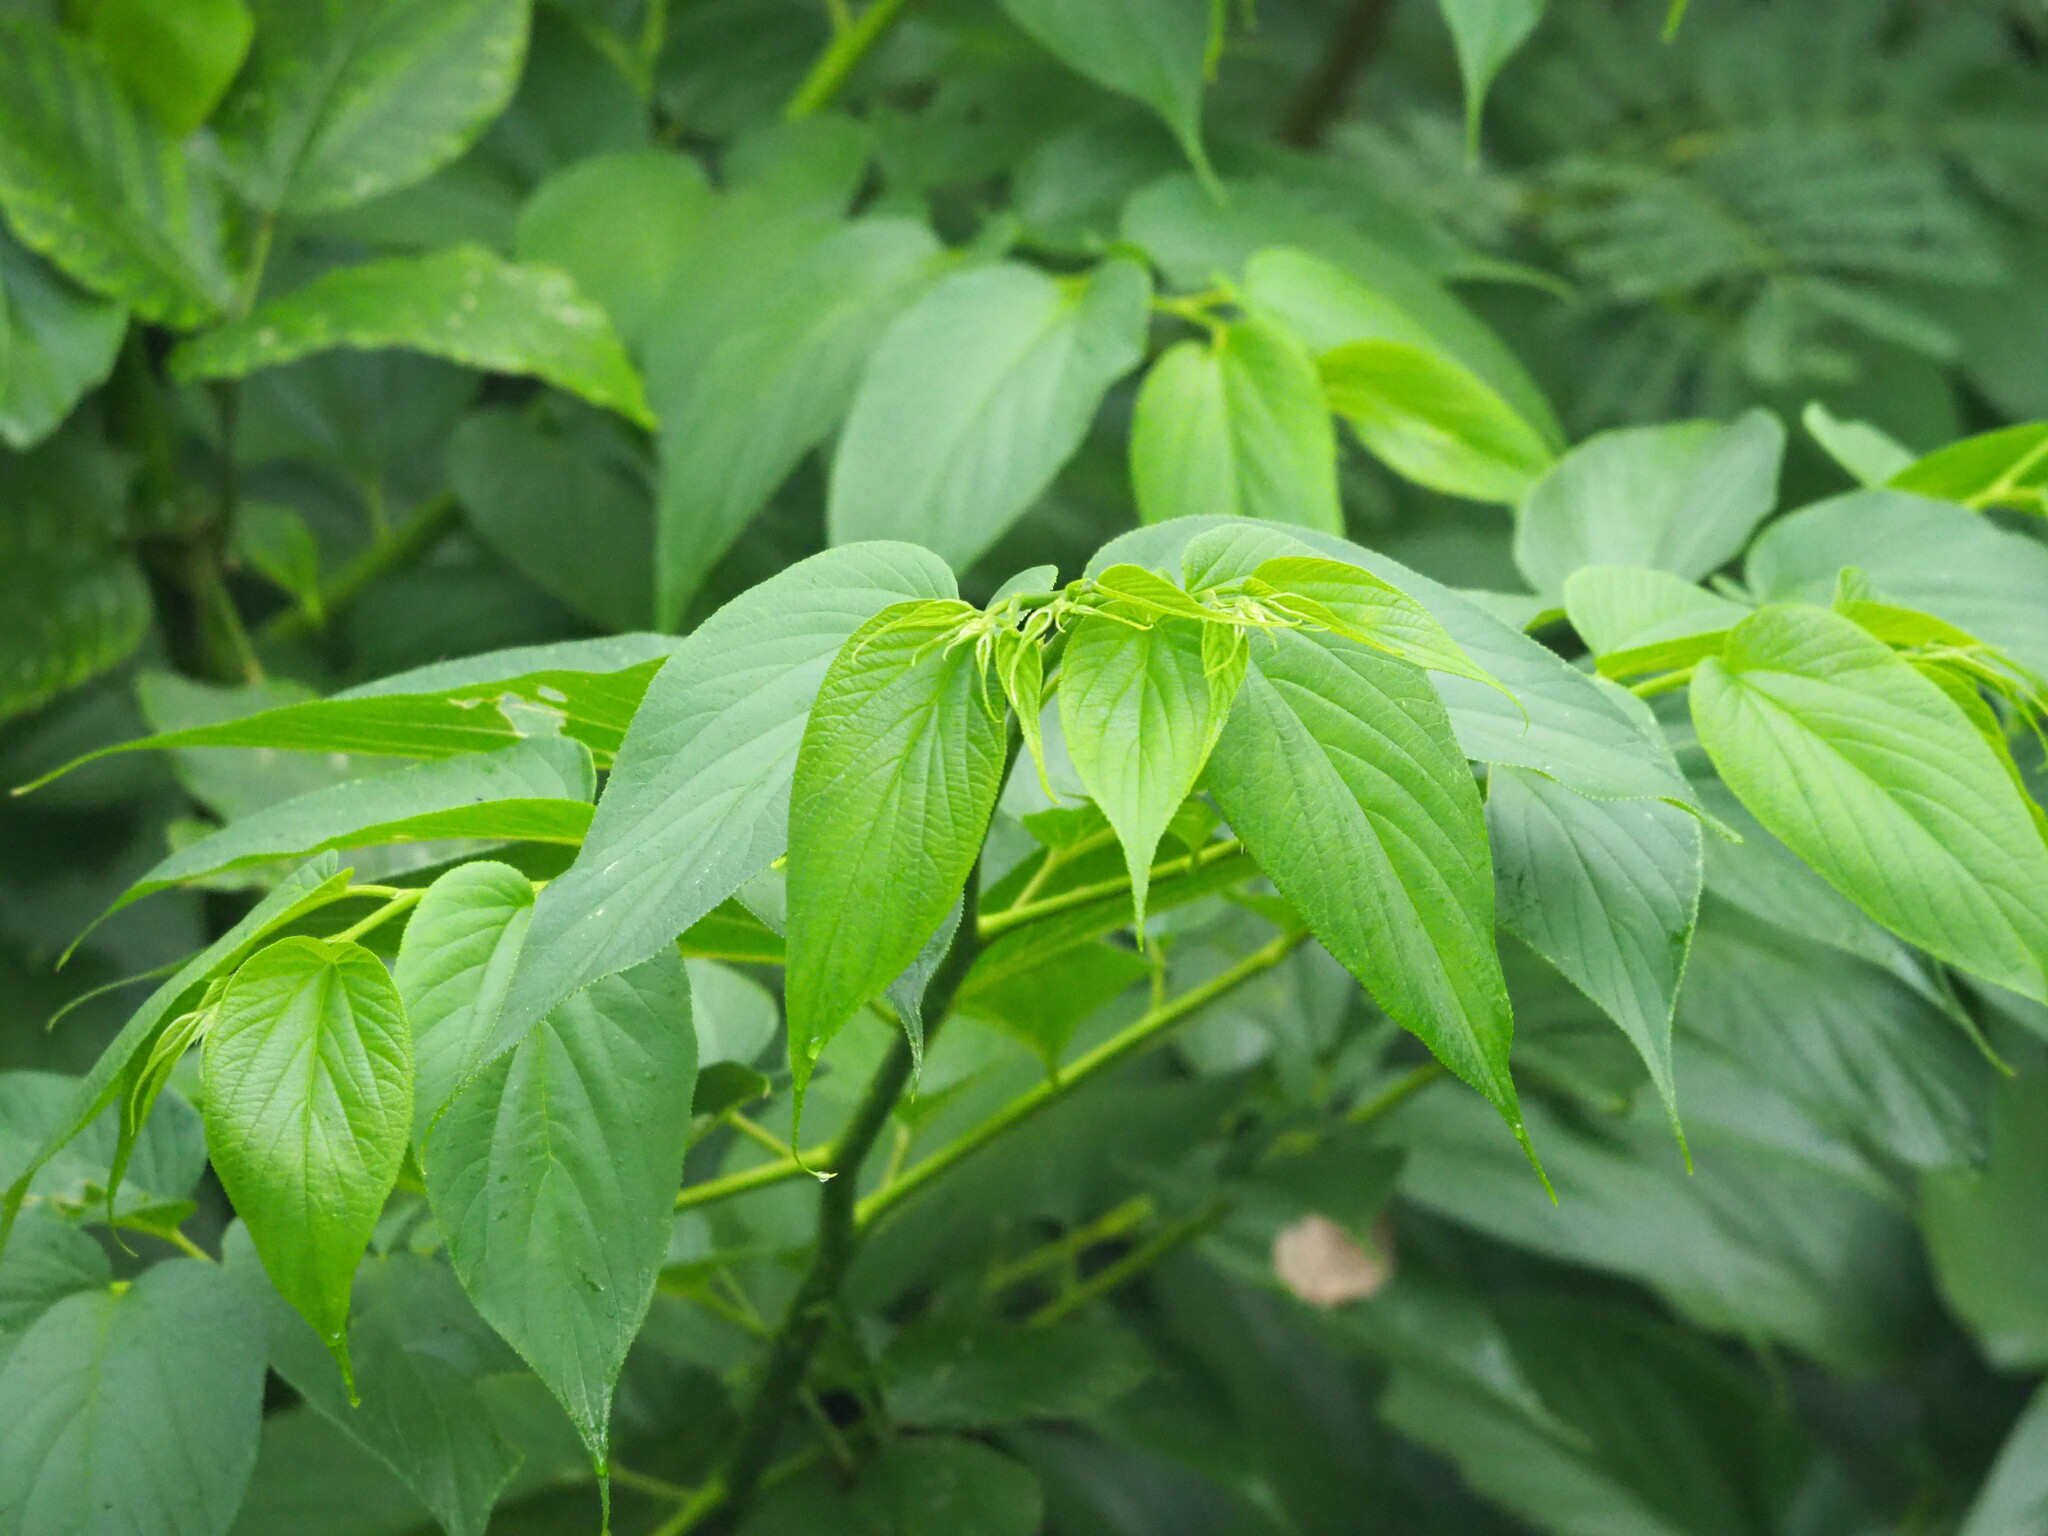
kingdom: Plantae
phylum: Tracheophyta
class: Magnoliopsida
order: Rosales
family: Cannabaceae
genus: Trema
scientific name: Trema tomentosum
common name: Peach-leaf-poisonbush
